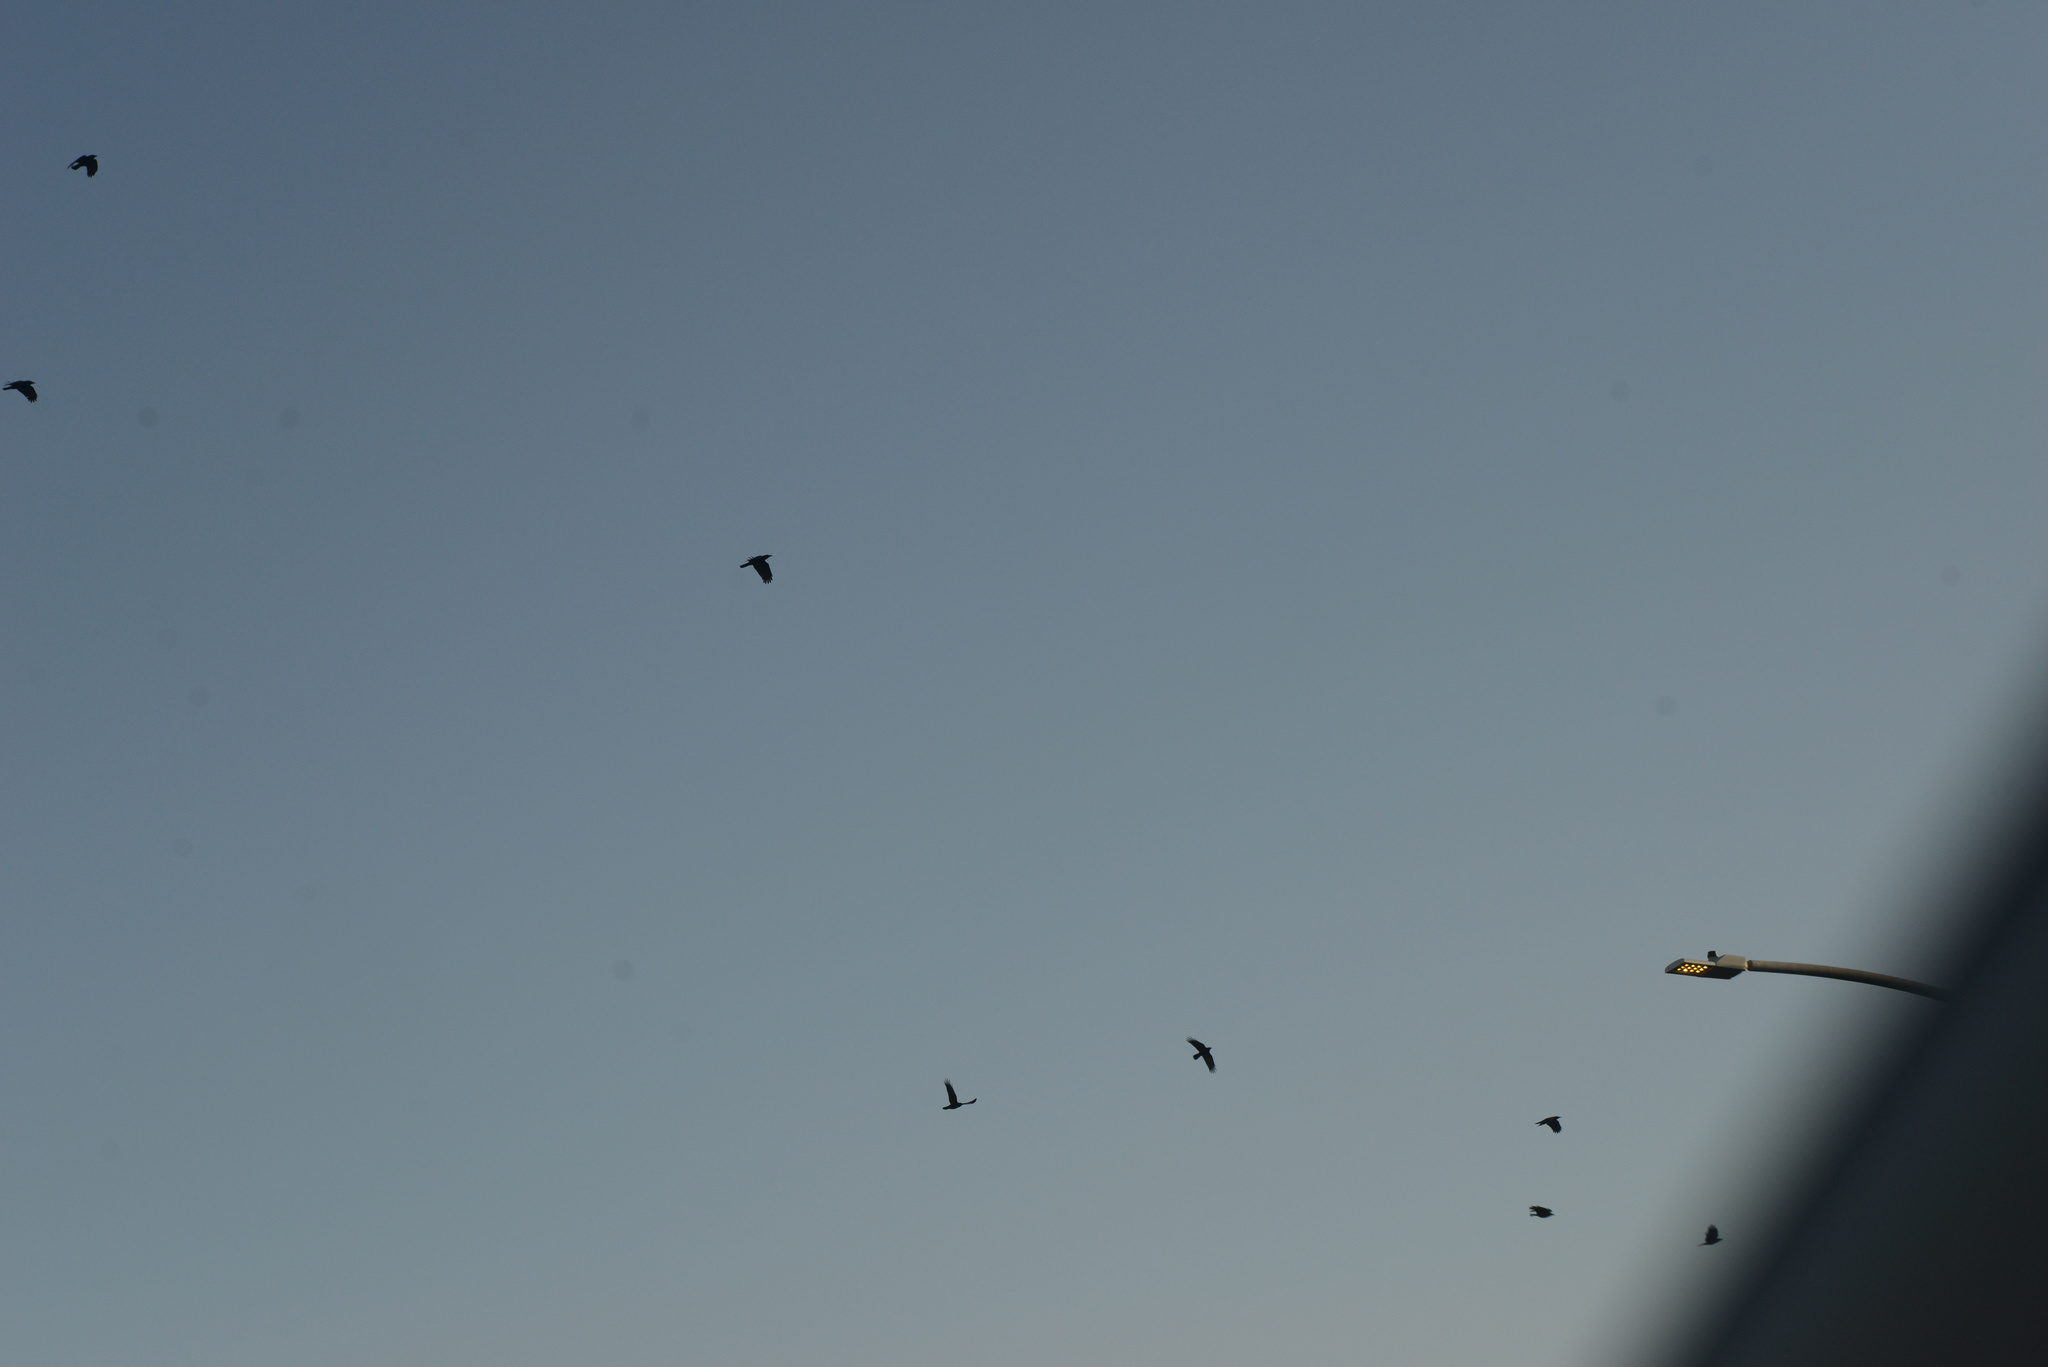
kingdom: Animalia
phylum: Chordata
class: Aves
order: Passeriformes
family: Corvidae
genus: Corvus
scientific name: Corvus brachyrhynchos
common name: American crow
